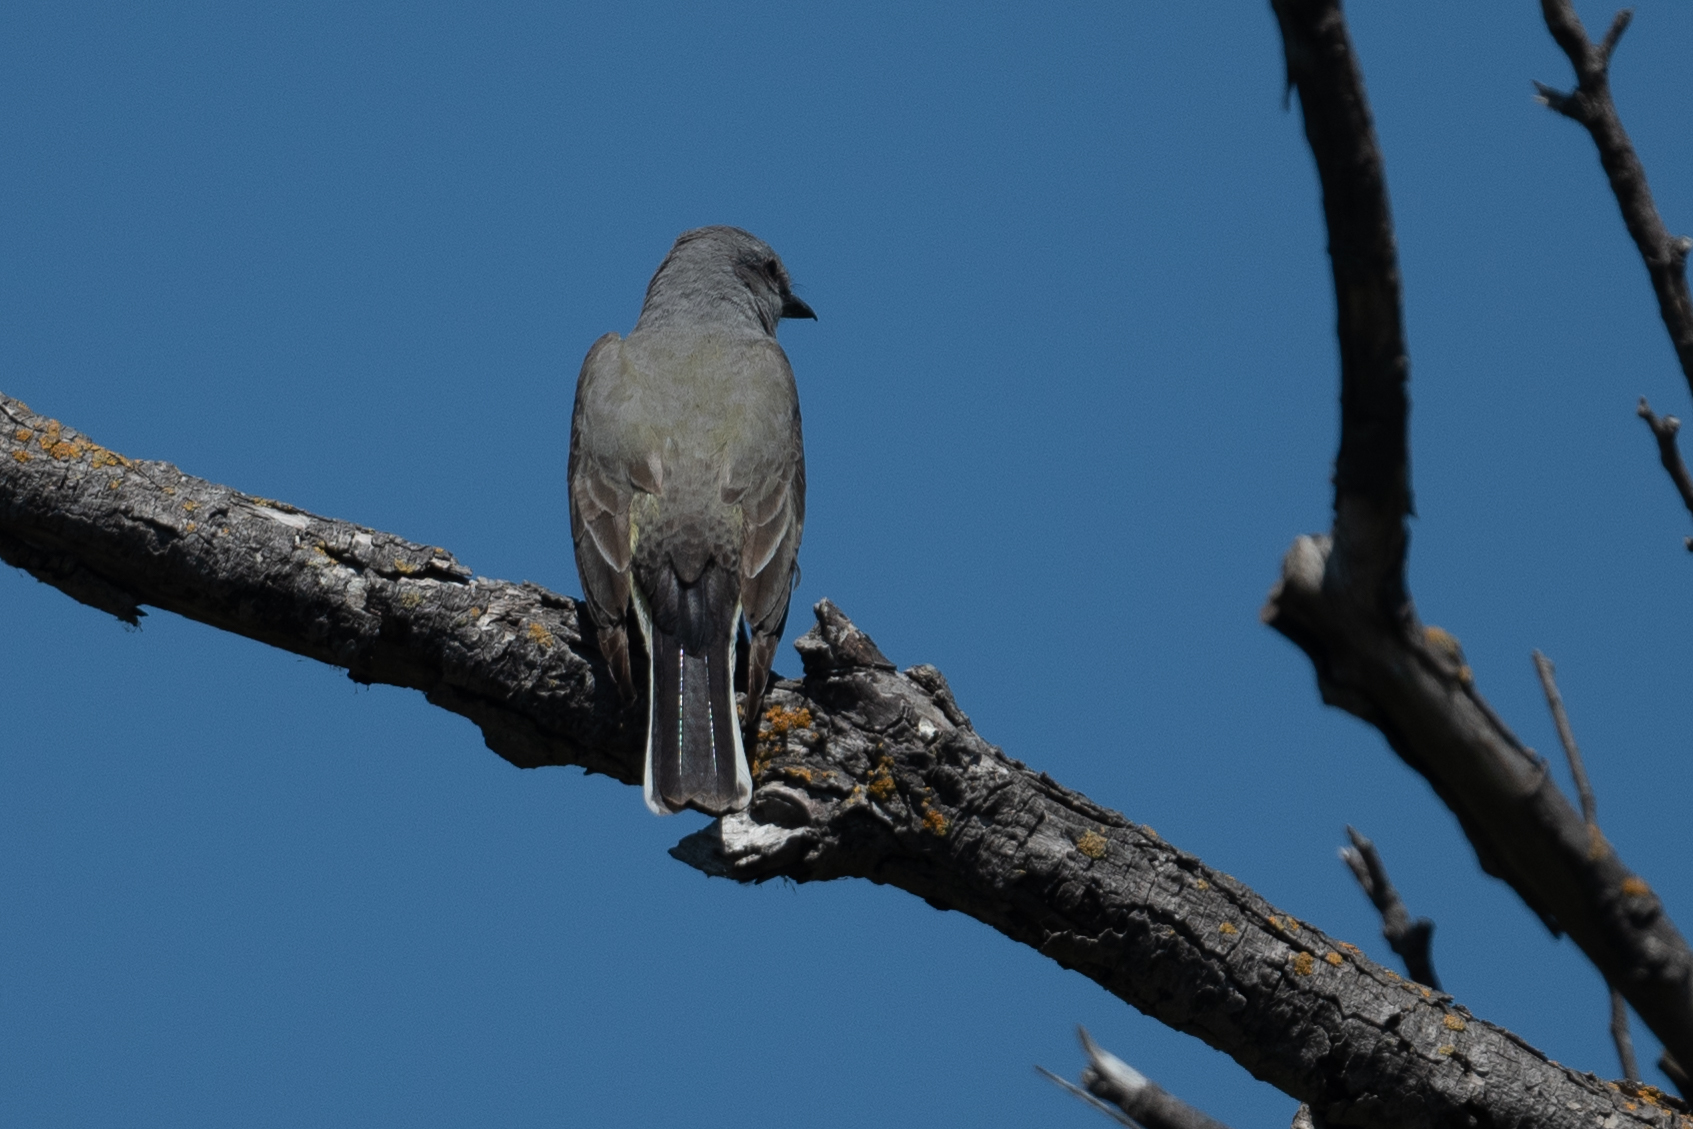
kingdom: Animalia
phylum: Chordata
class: Aves
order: Passeriformes
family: Tyrannidae
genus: Tyrannus
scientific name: Tyrannus verticalis
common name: Western kingbird
